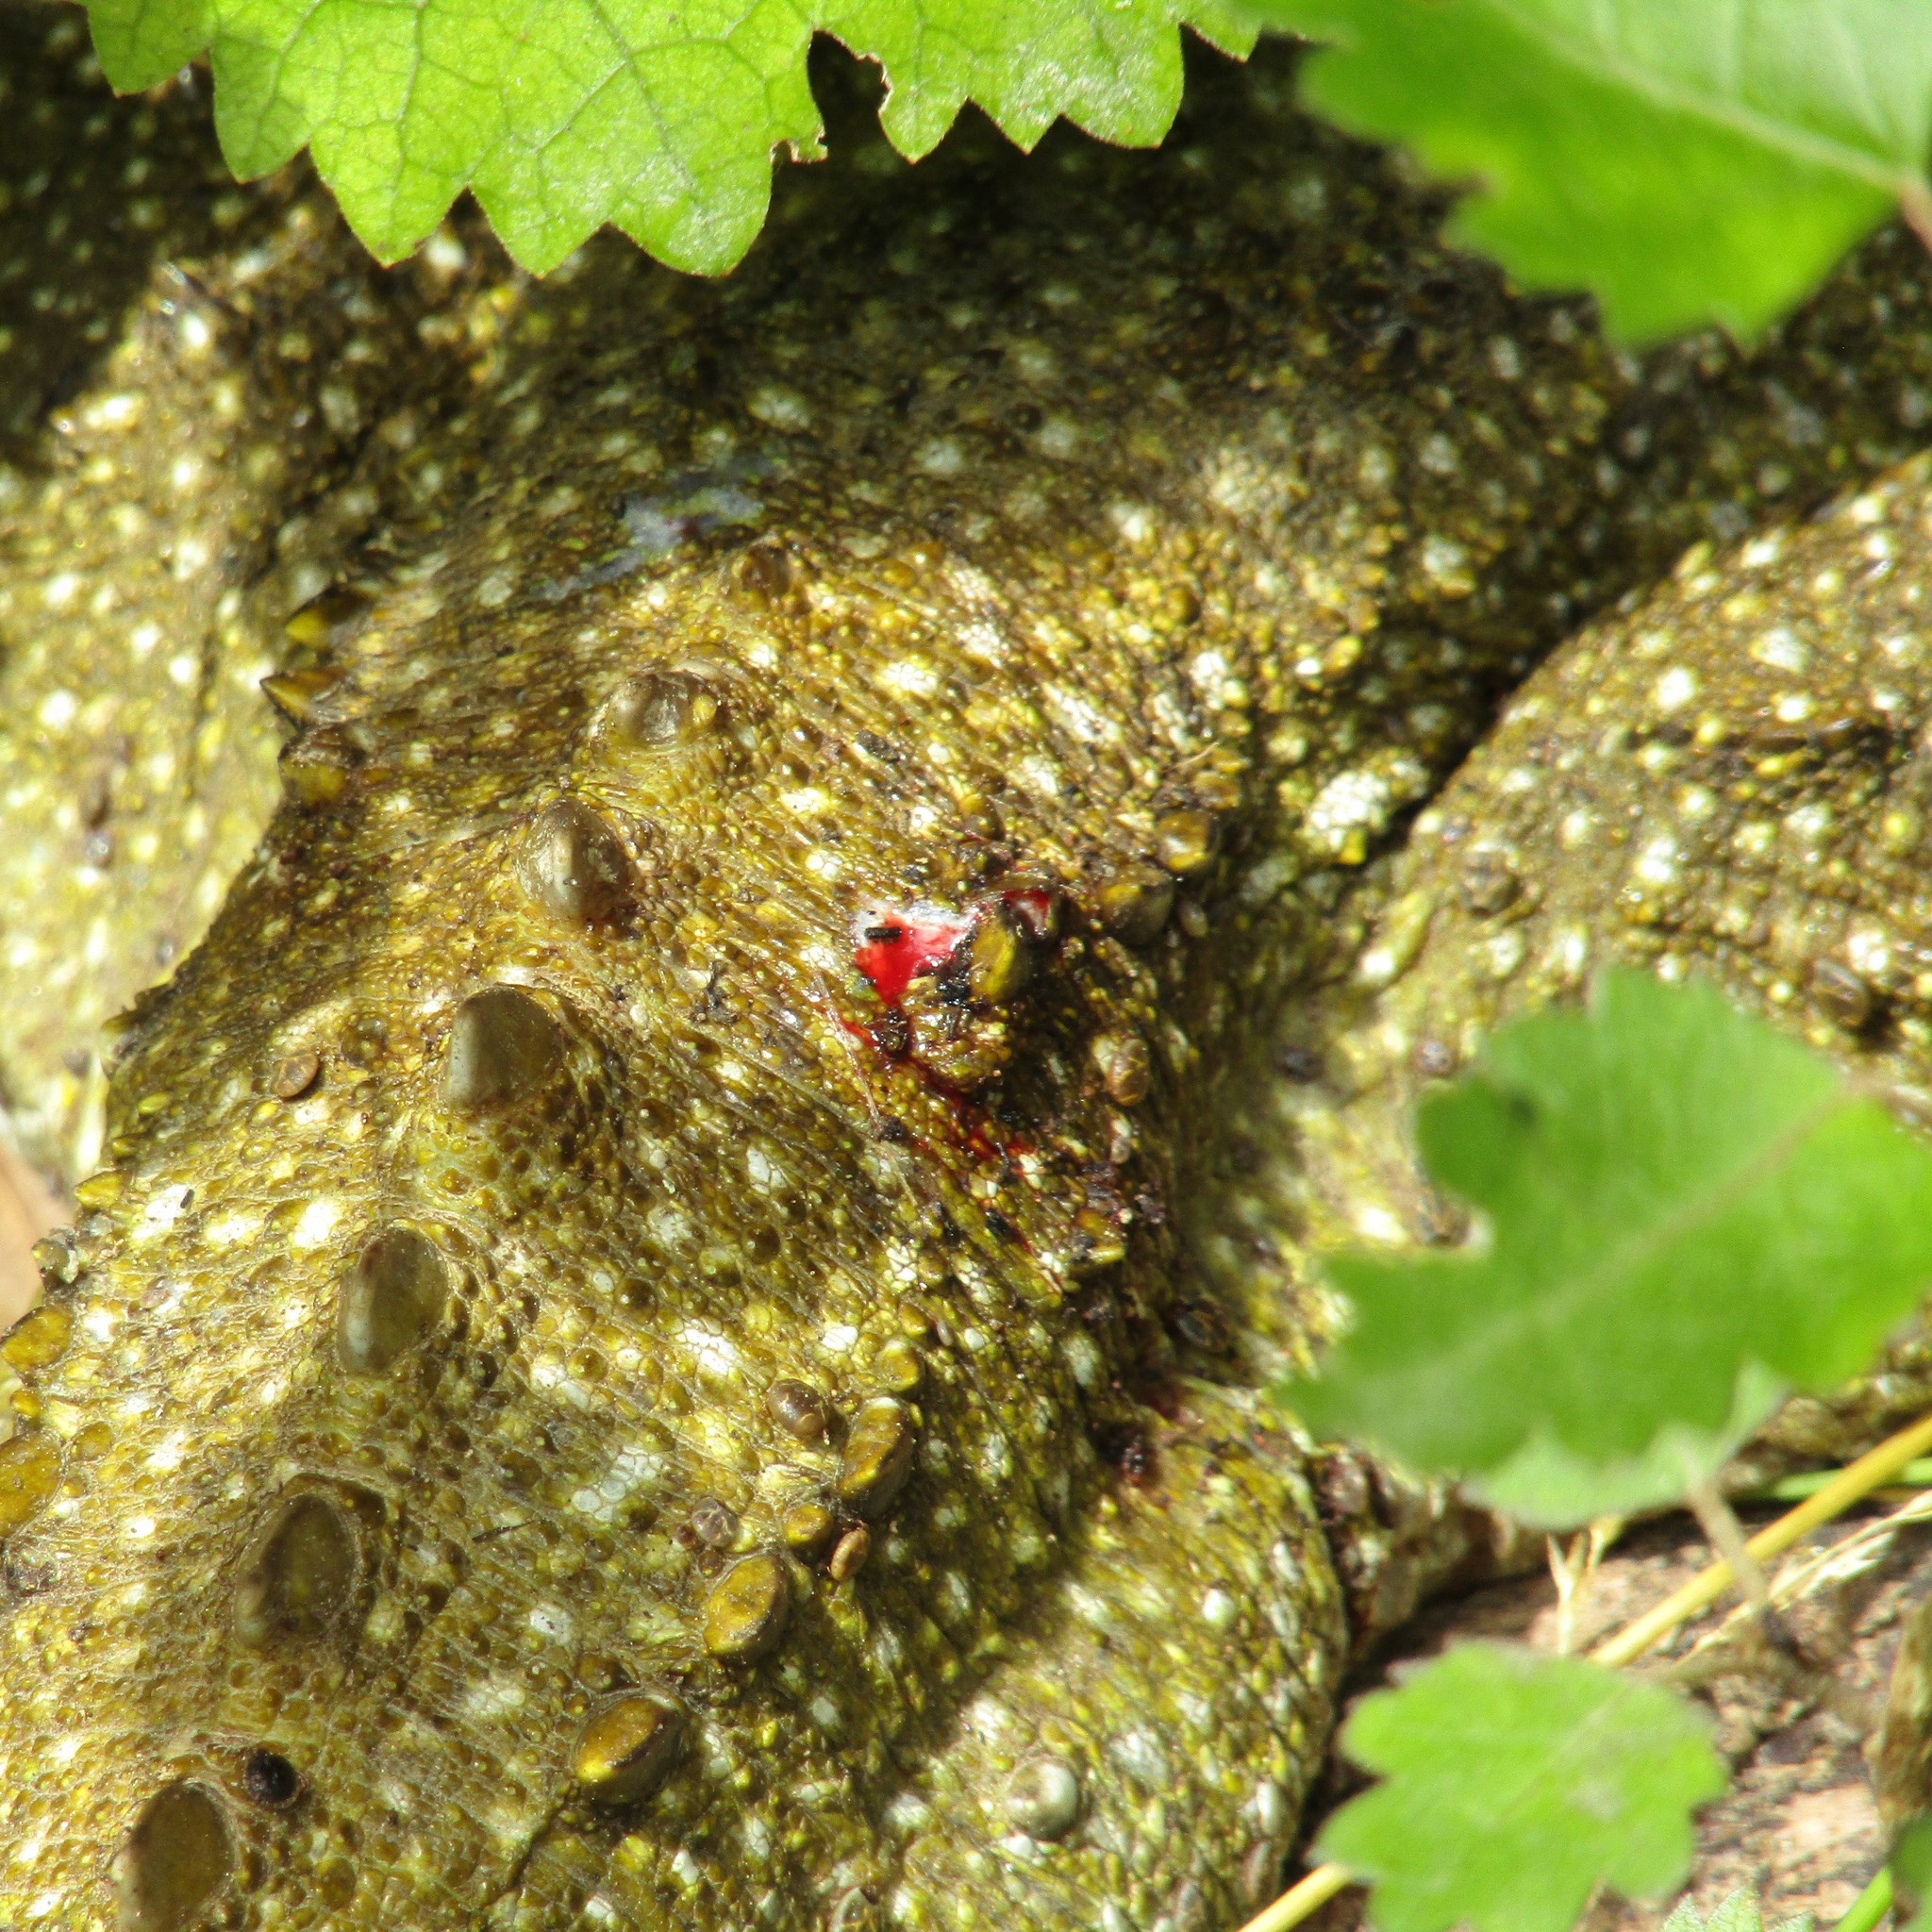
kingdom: Animalia
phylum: Chordata
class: Sphenodontia
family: Sphenodontidae
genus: Sphenodon
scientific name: Sphenodon punctatus
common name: Tuatara
